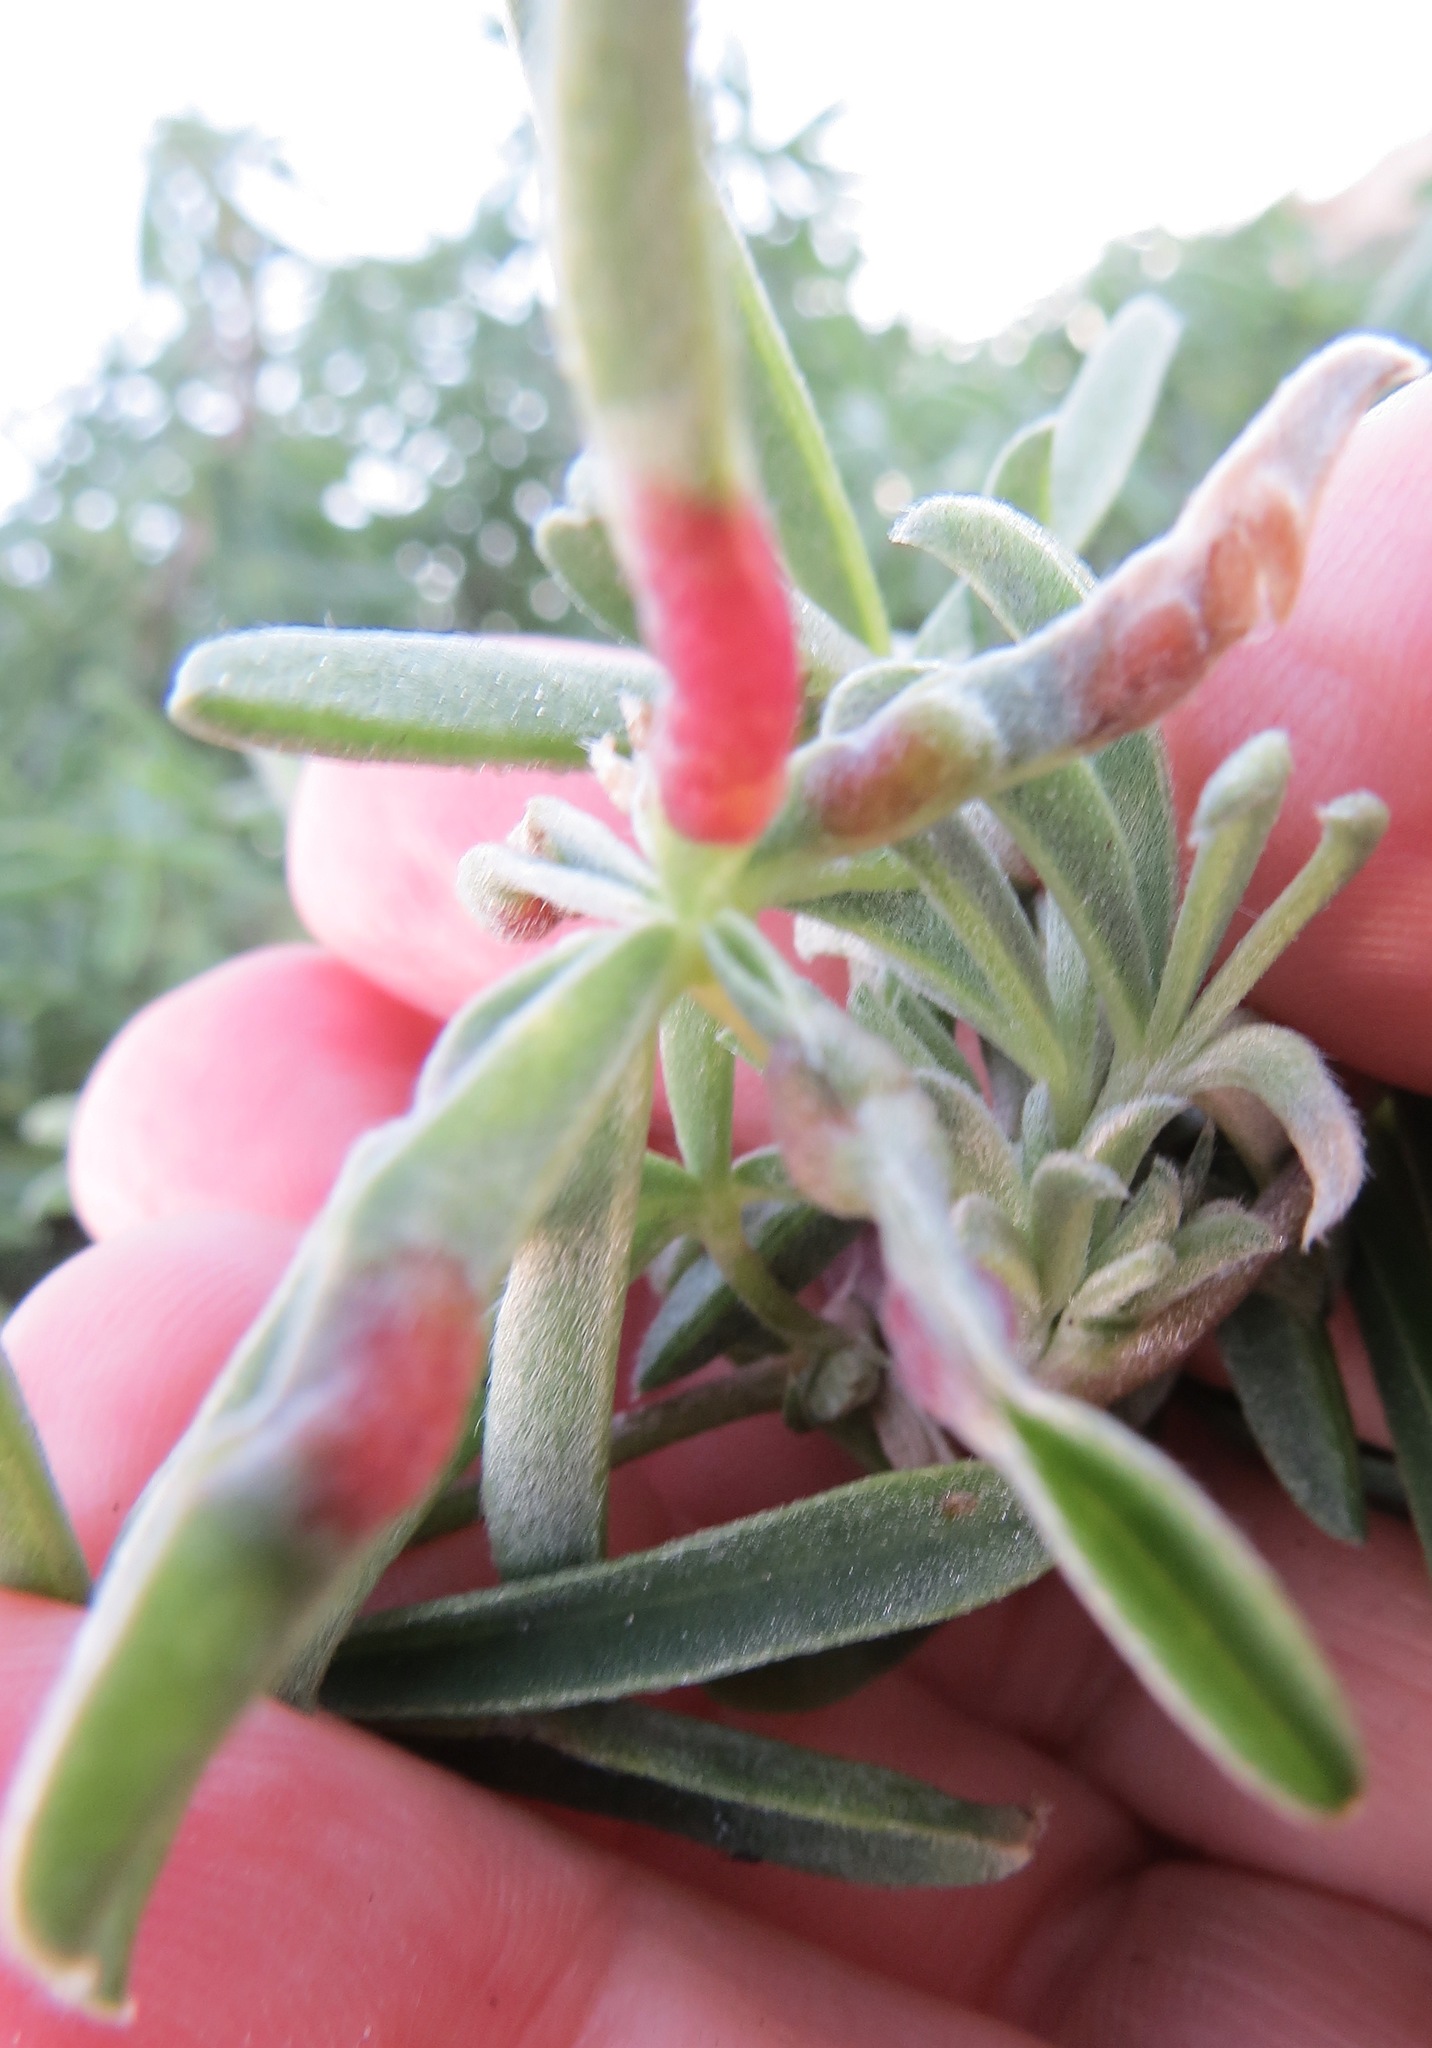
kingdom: Animalia
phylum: Arthropoda
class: Insecta
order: Diptera
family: Cecidomyiidae
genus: Dasineura
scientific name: Dasineura lupinorum
